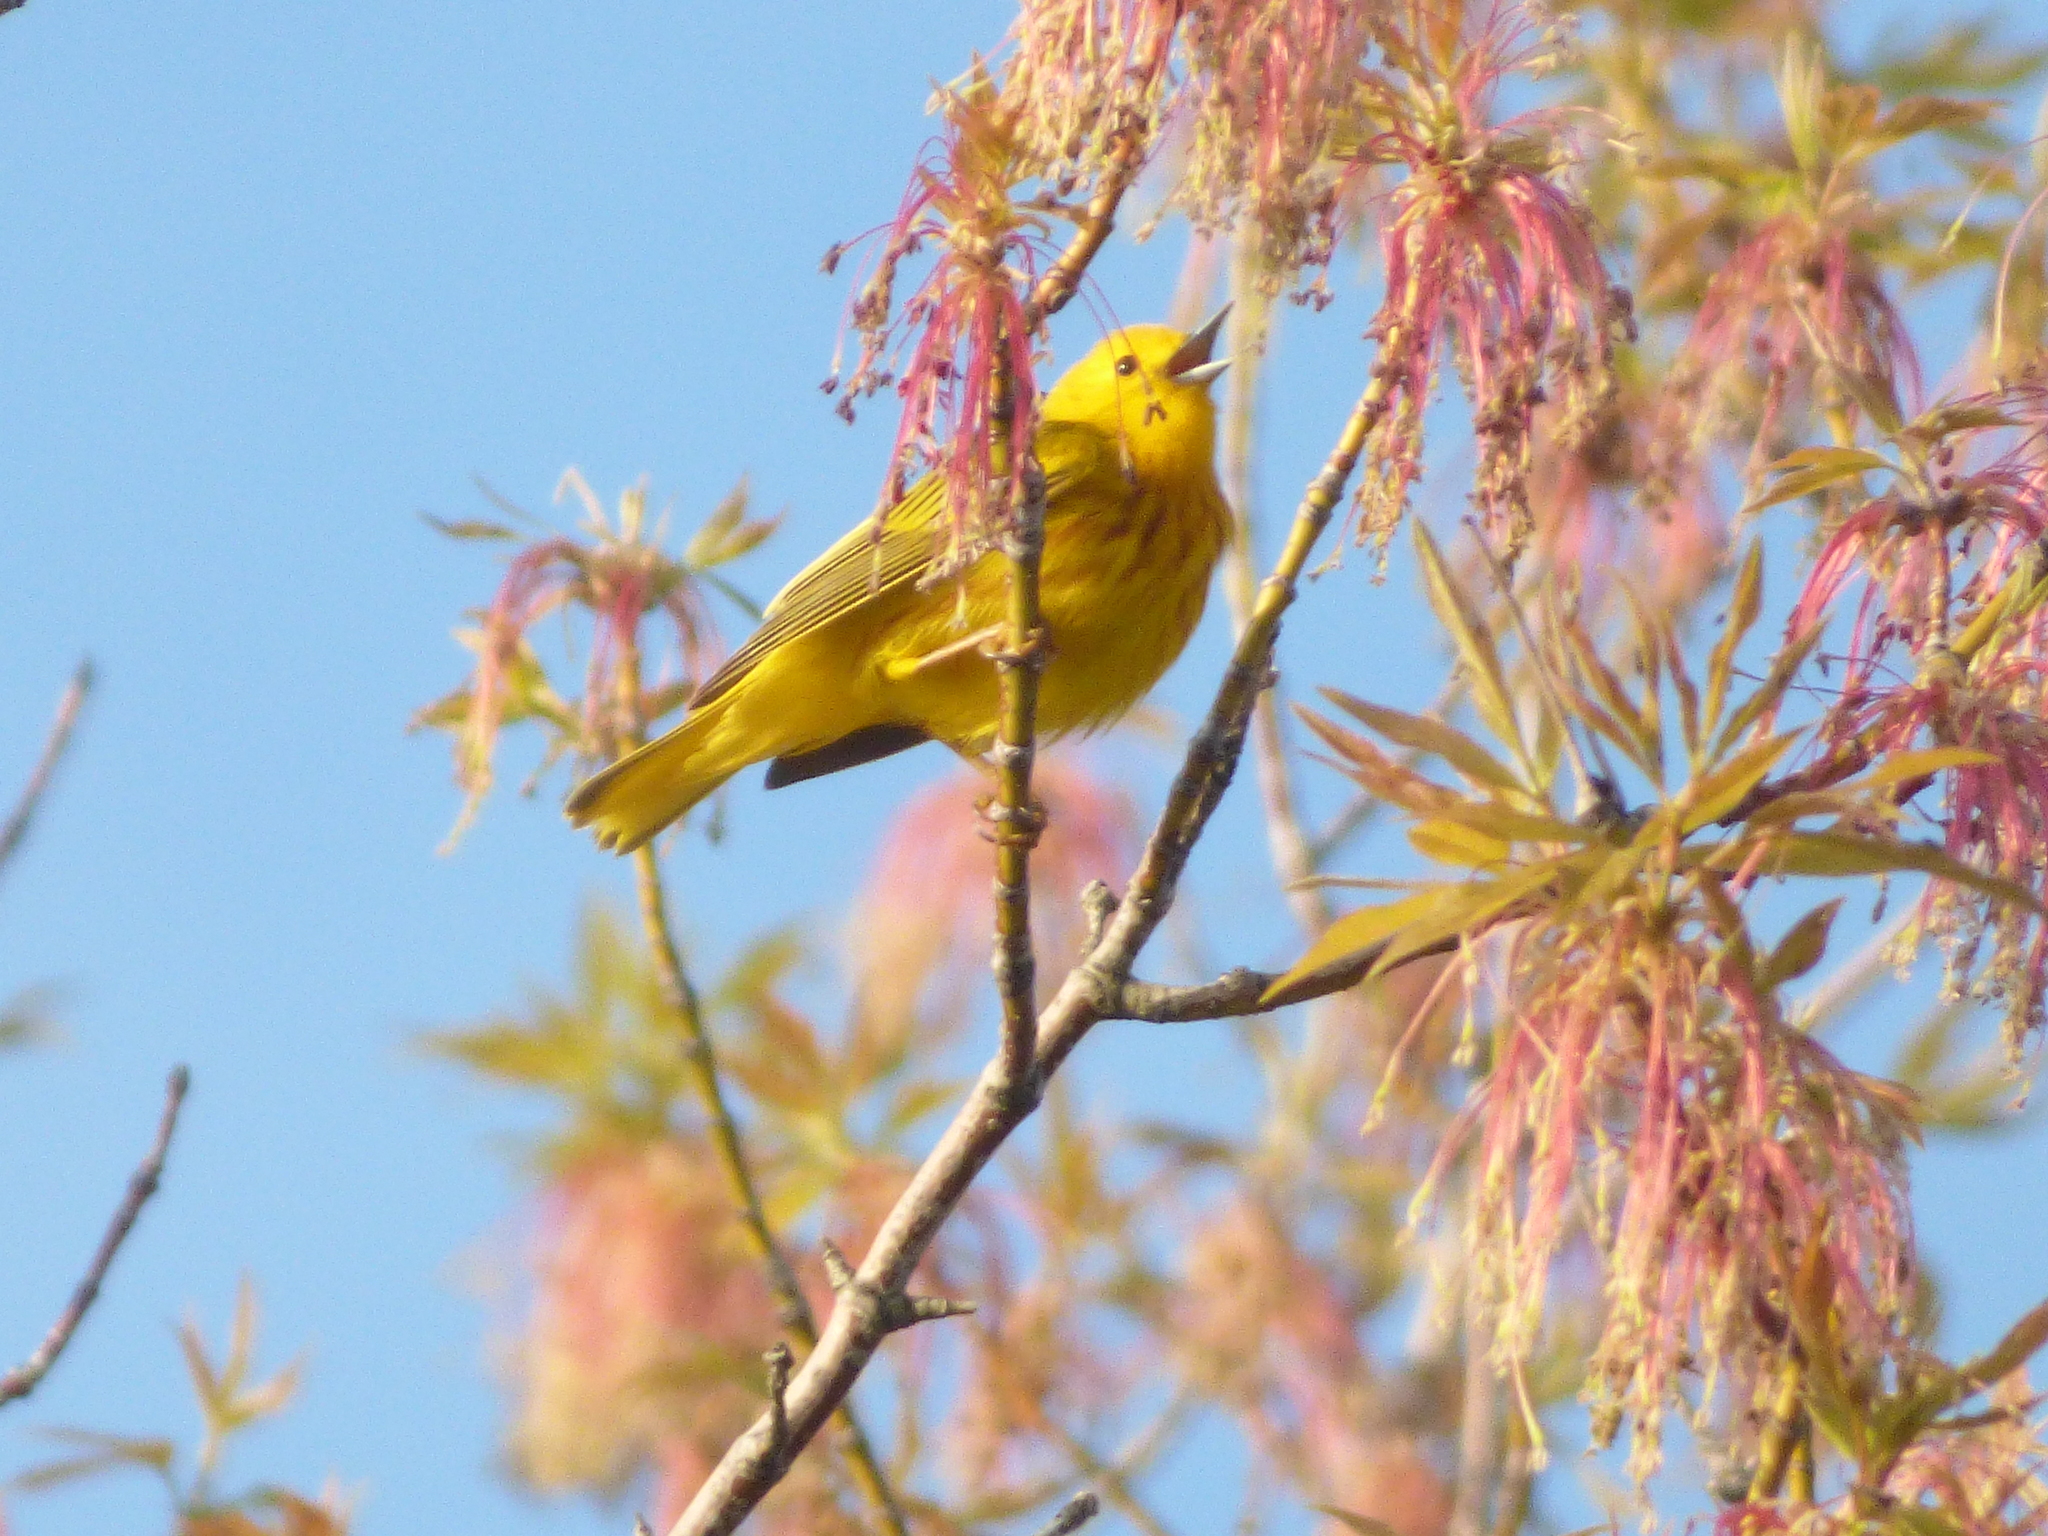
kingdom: Animalia
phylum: Chordata
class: Aves
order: Passeriformes
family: Parulidae
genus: Setophaga
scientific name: Setophaga petechia
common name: Yellow warbler
